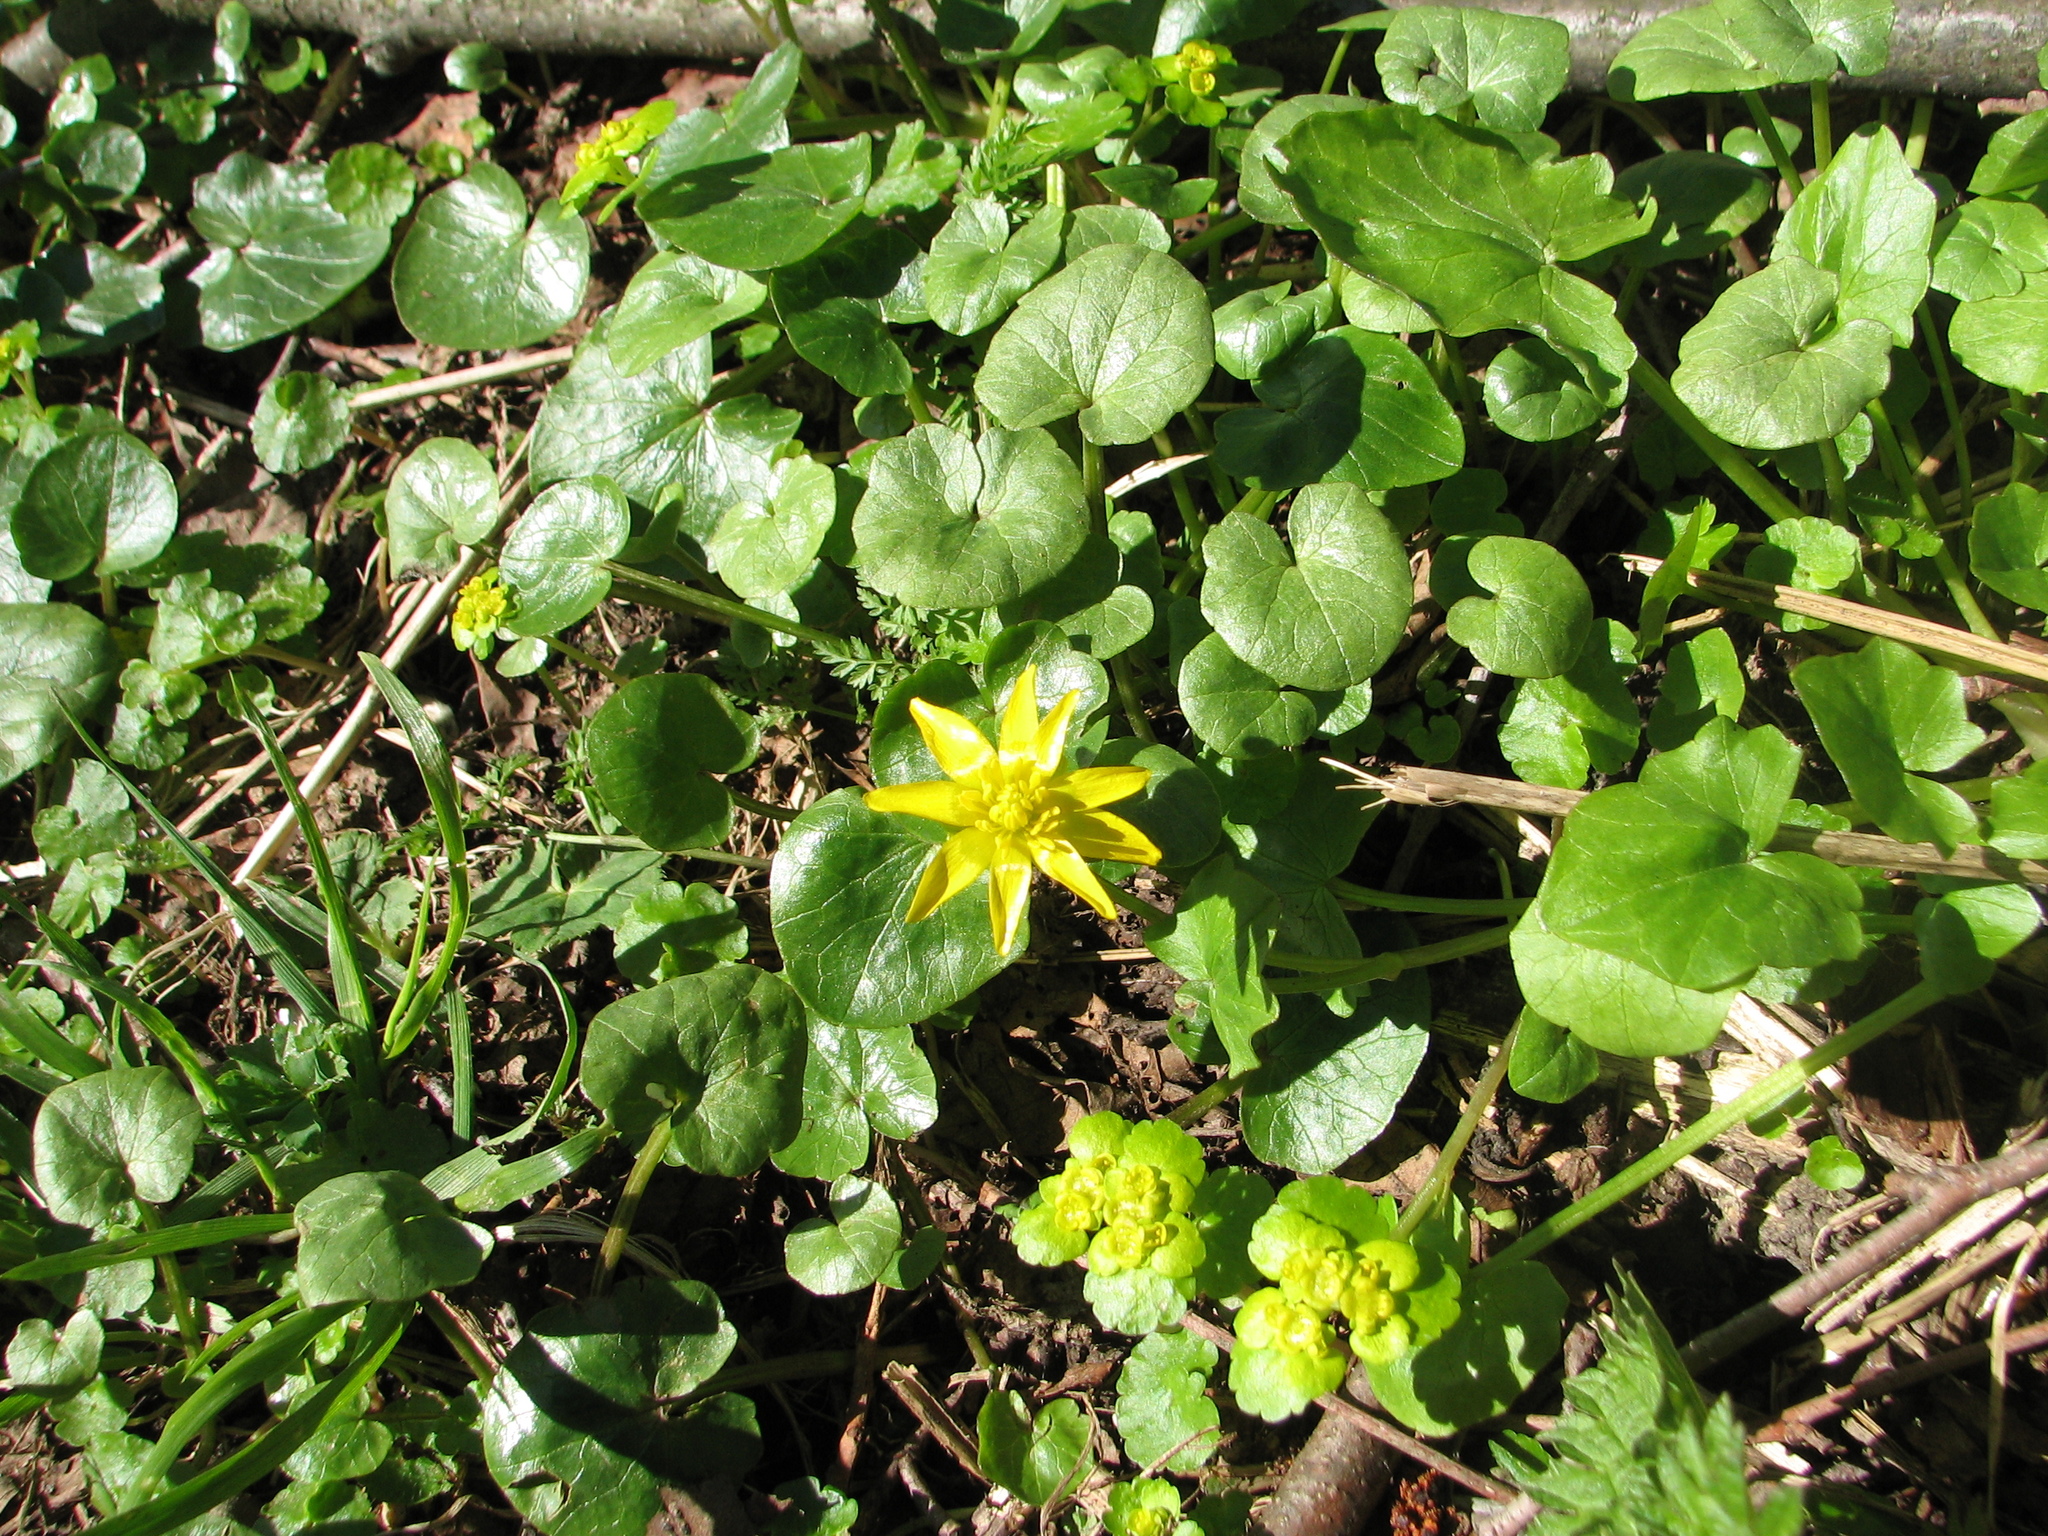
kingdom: Plantae
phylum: Tracheophyta
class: Magnoliopsida
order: Ranunculales
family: Ranunculaceae
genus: Ficaria
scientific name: Ficaria verna
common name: Lesser celandine
